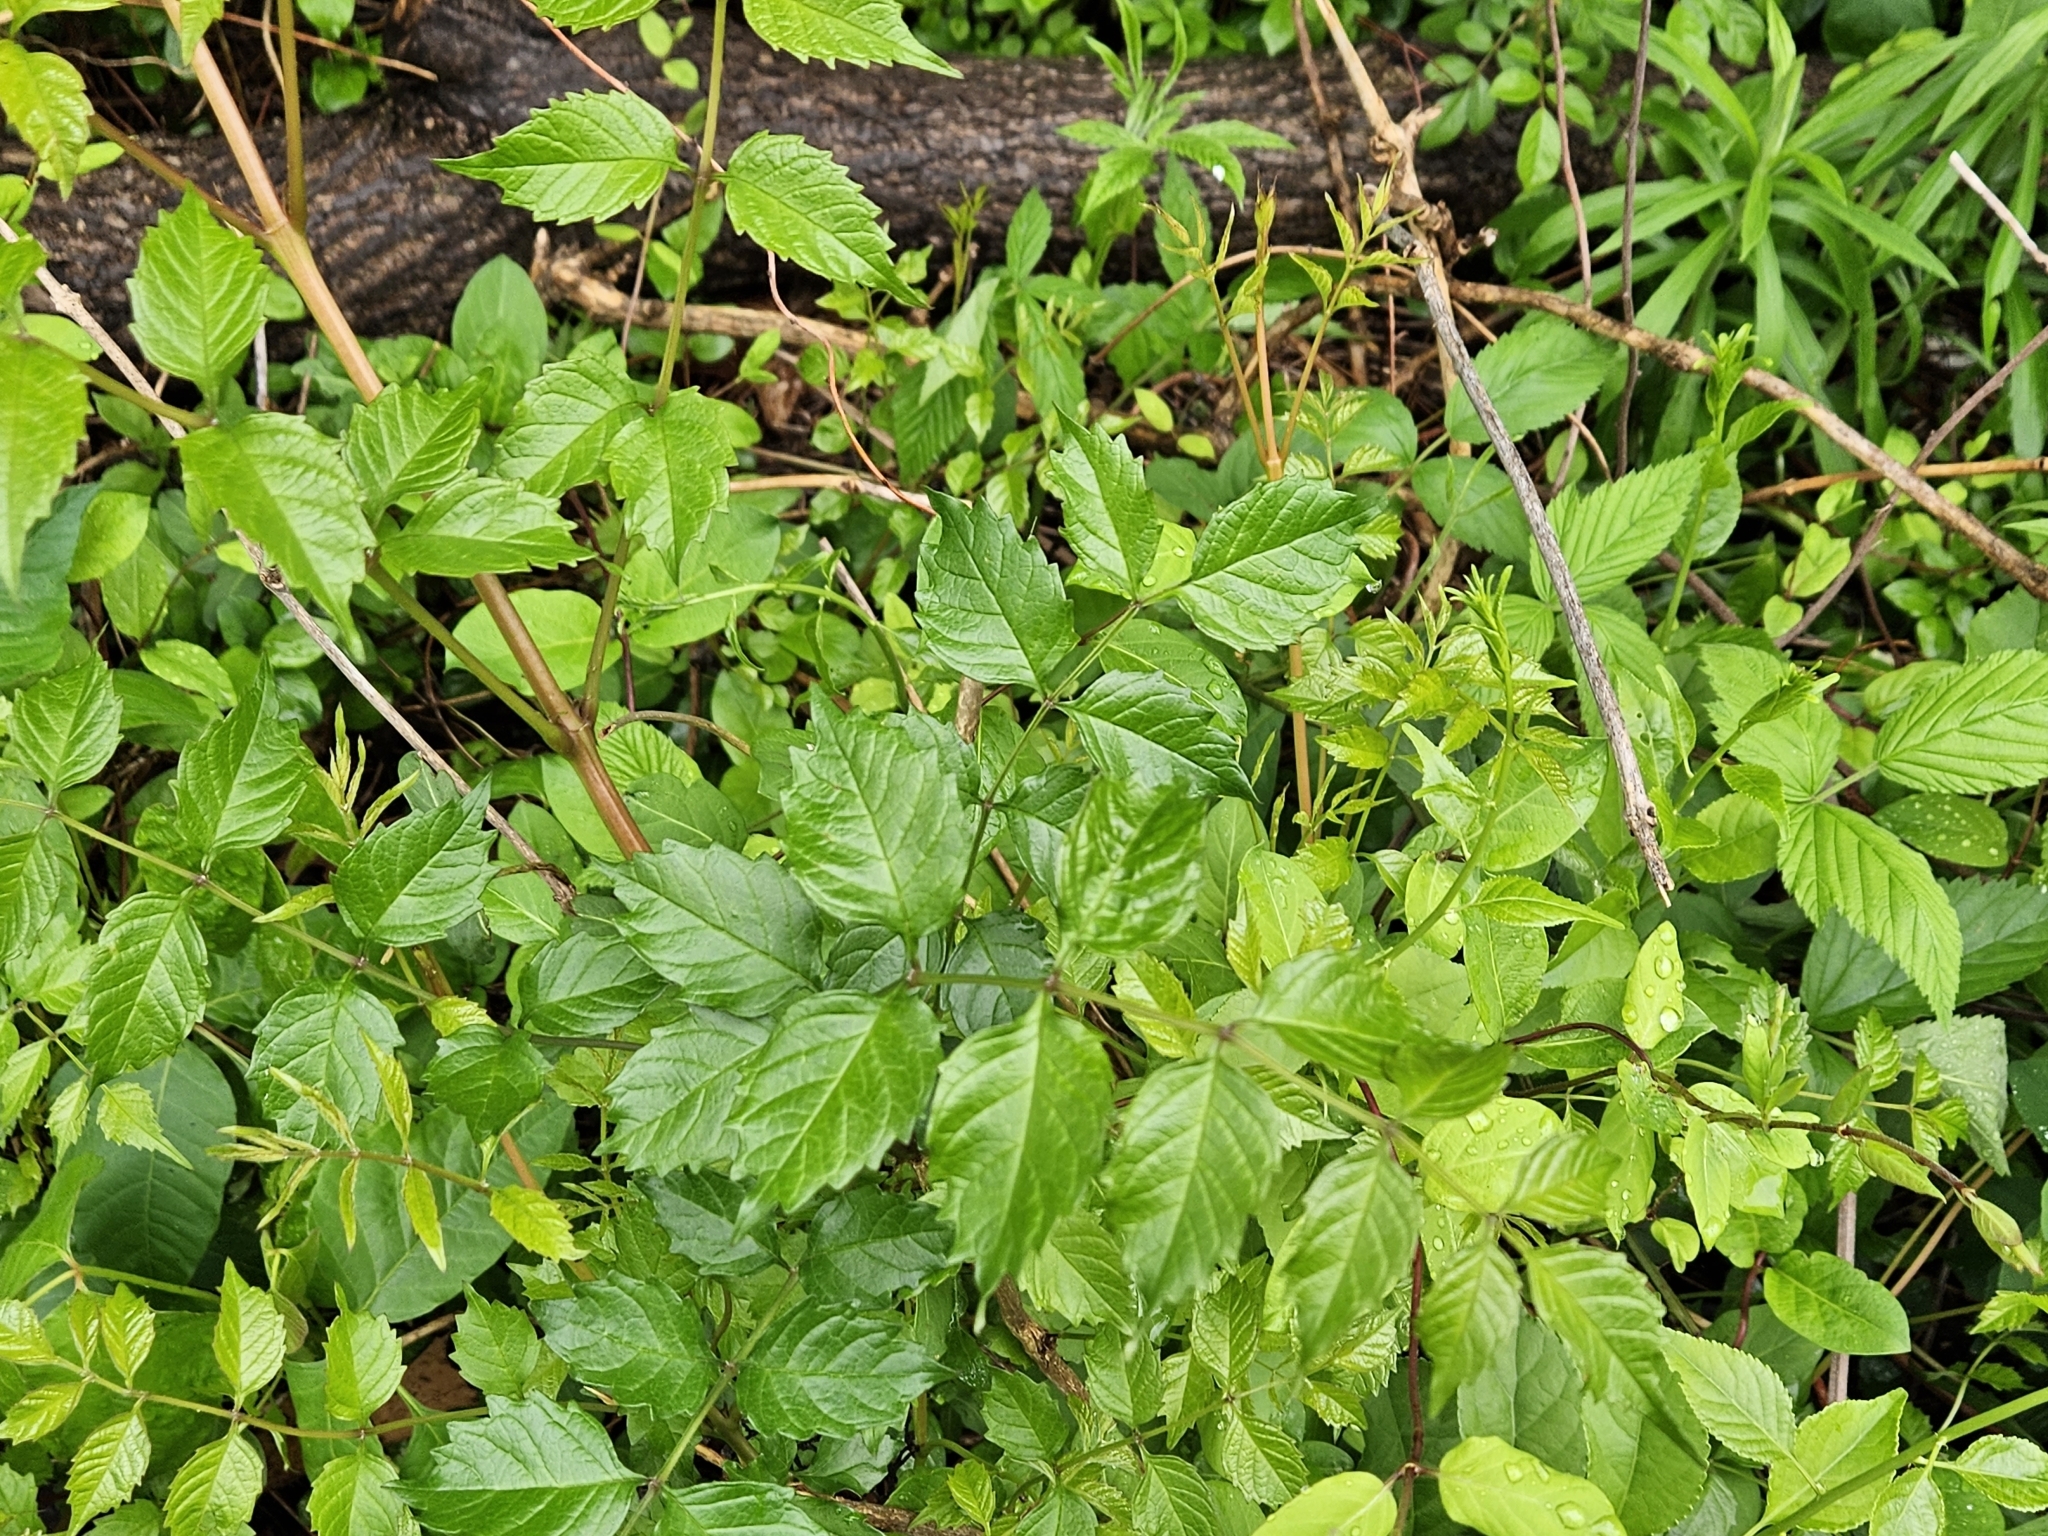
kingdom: Plantae
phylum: Tracheophyta
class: Magnoliopsida
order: Lamiales
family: Bignoniaceae
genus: Campsis
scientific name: Campsis radicans
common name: Trumpet-creeper
